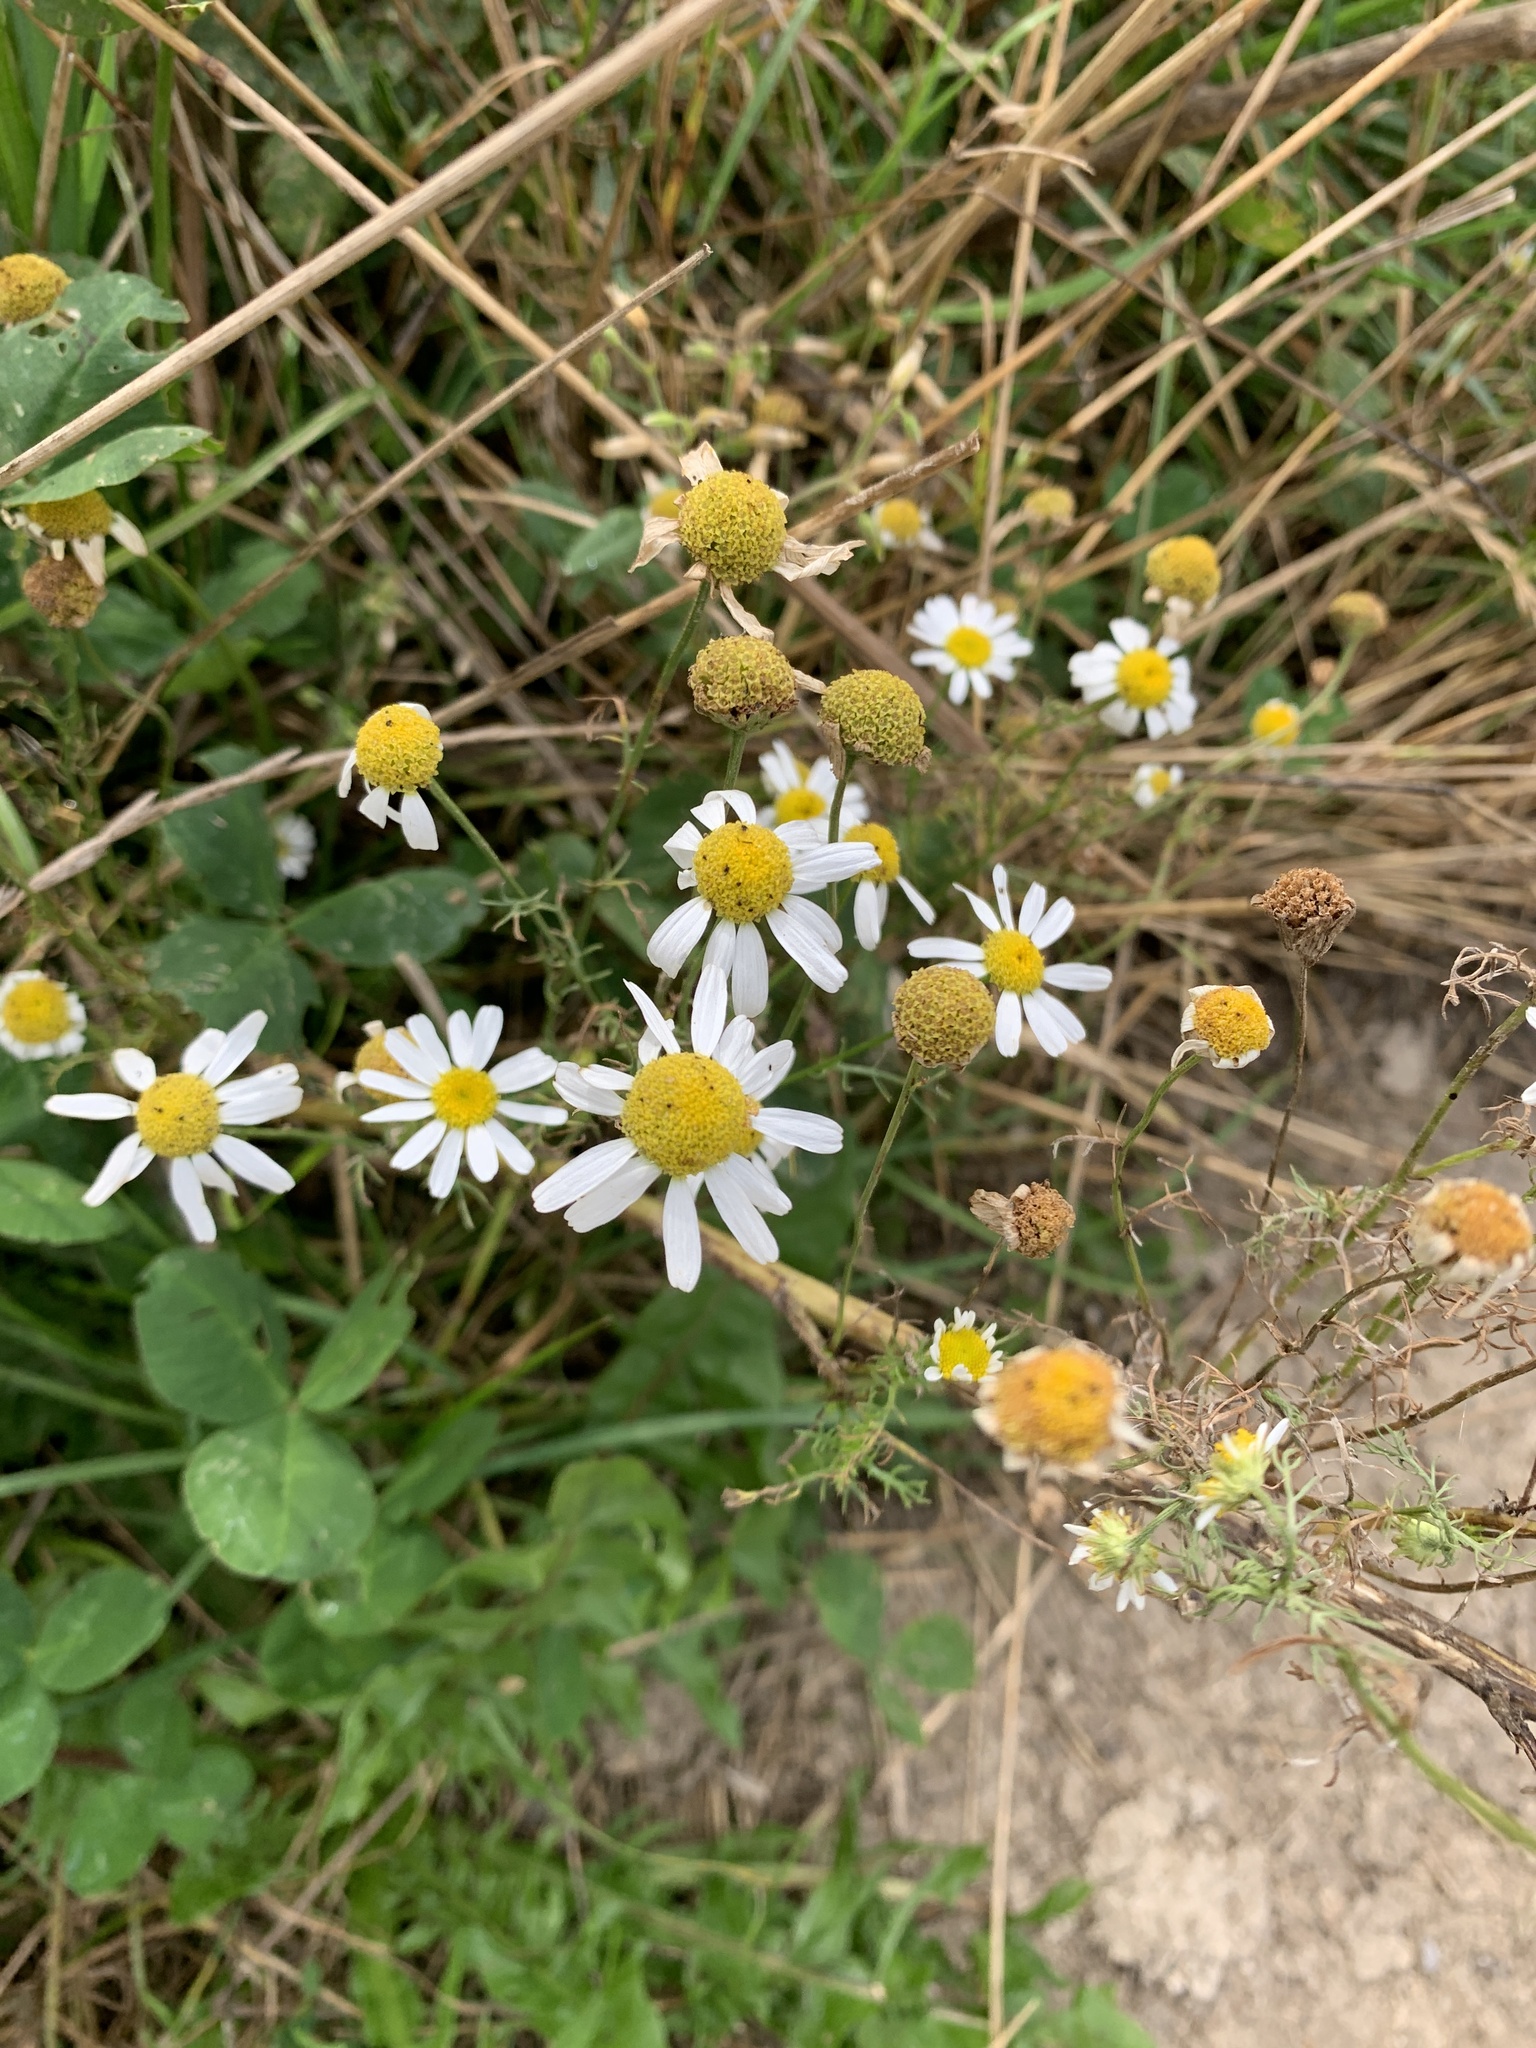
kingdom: Plantae
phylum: Tracheophyta
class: Magnoliopsida
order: Asterales
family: Asteraceae
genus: Tripleurospermum
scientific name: Tripleurospermum inodorum
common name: Scentless mayweed
